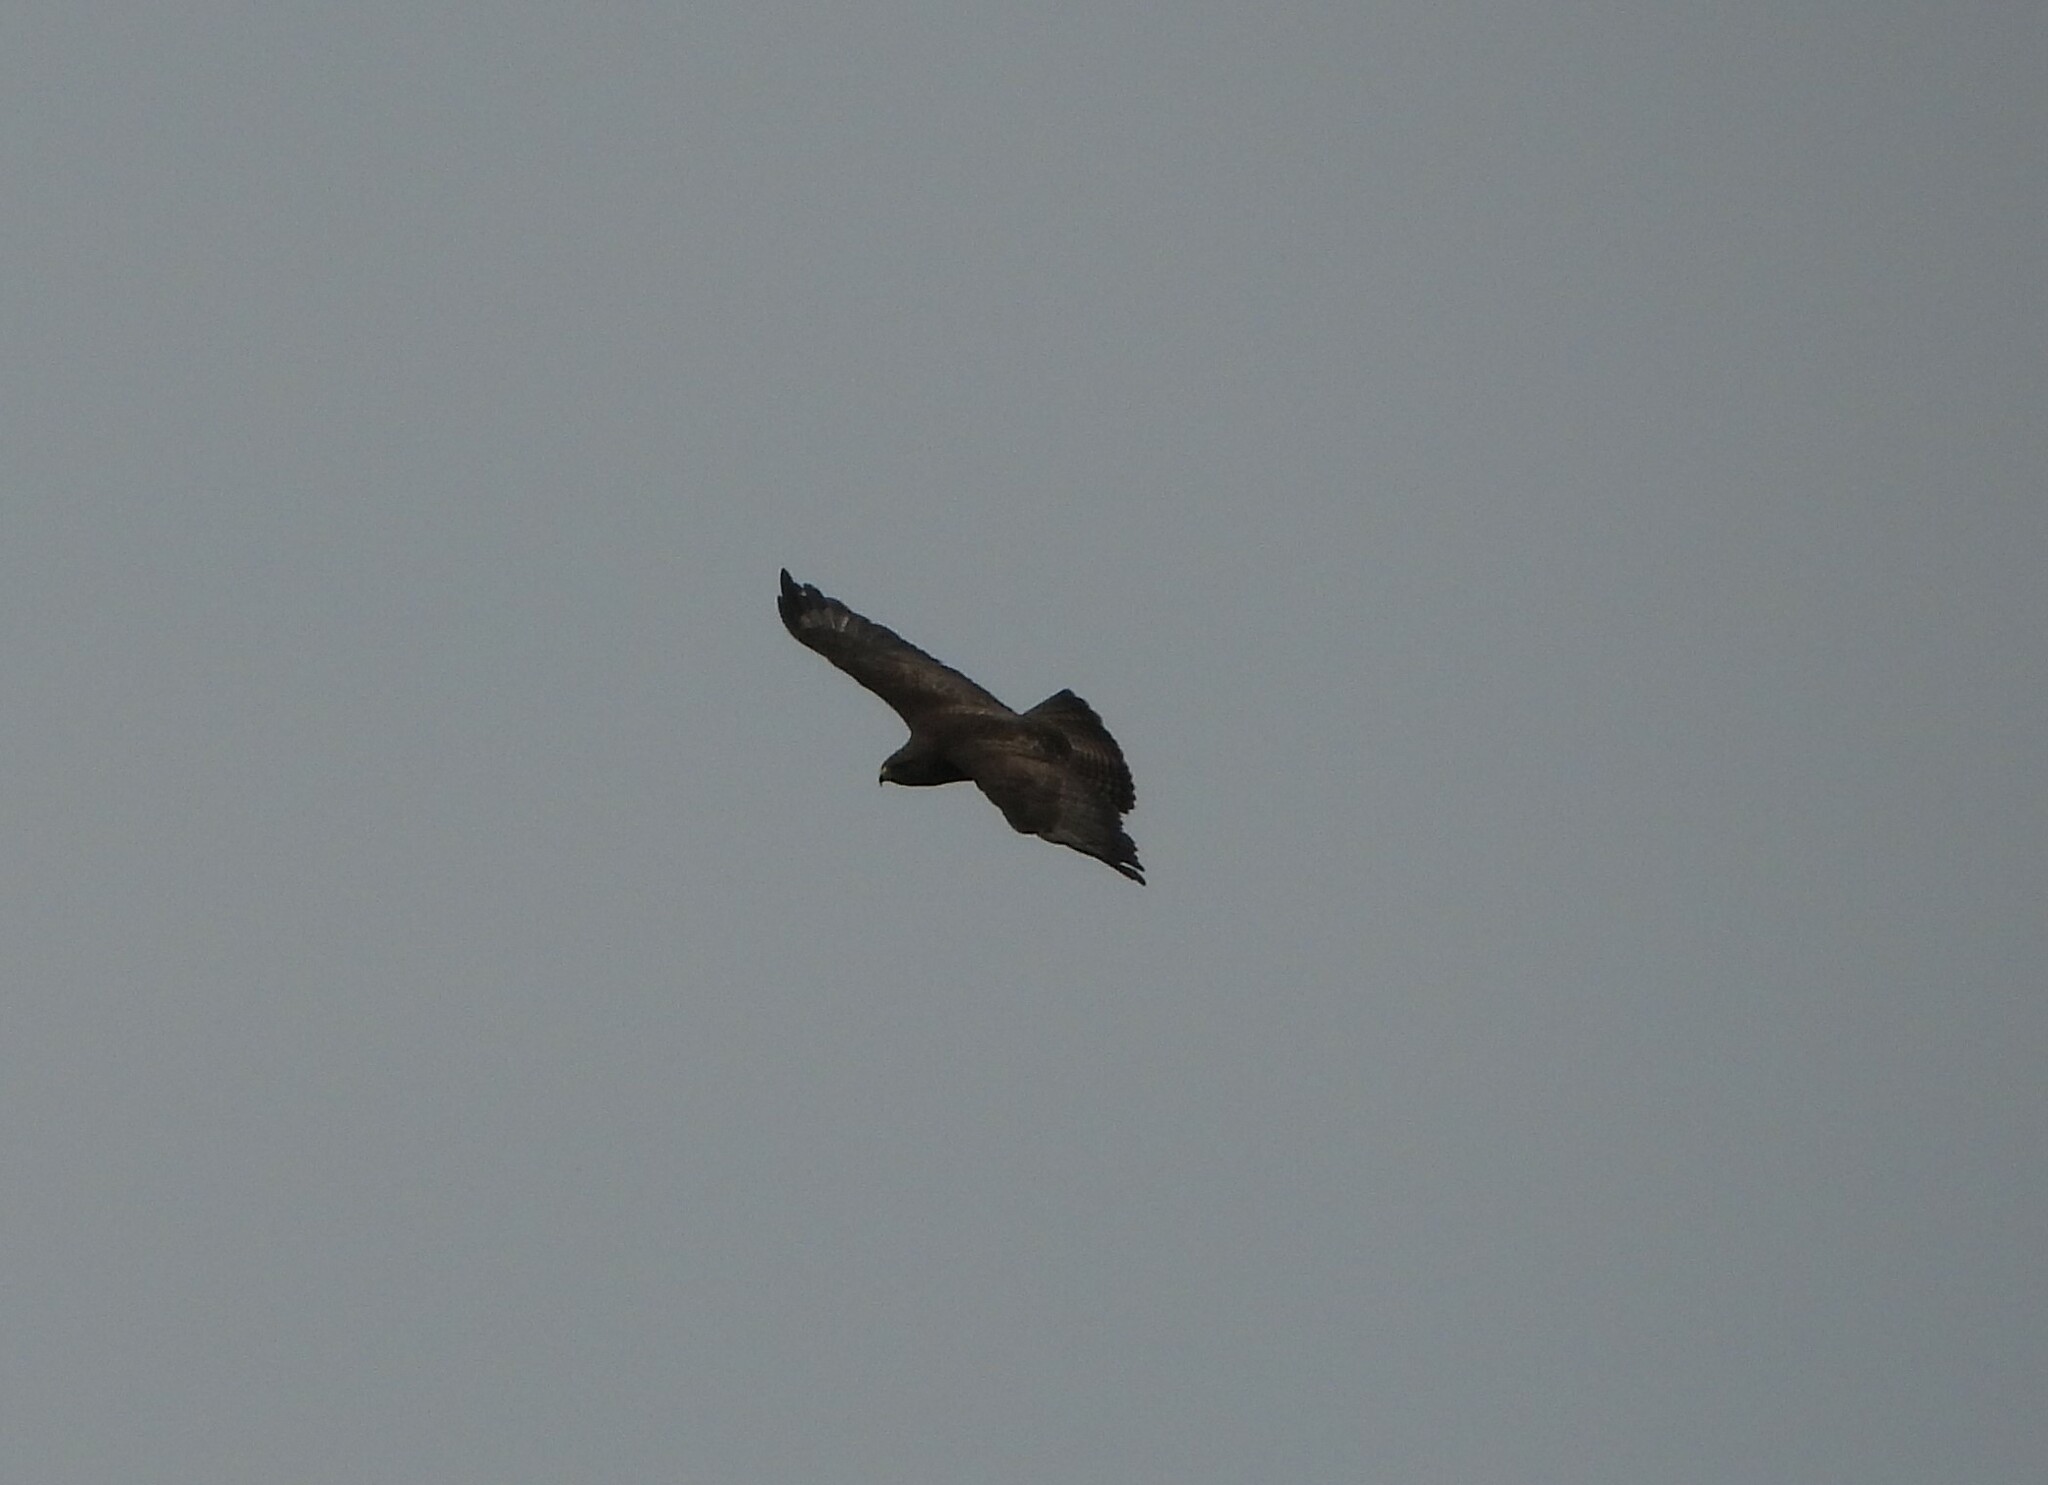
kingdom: Animalia
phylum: Chordata
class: Aves
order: Accipitriformes
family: Accipitridae
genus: Buteo
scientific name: Buteo buteo
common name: Common buzzard
